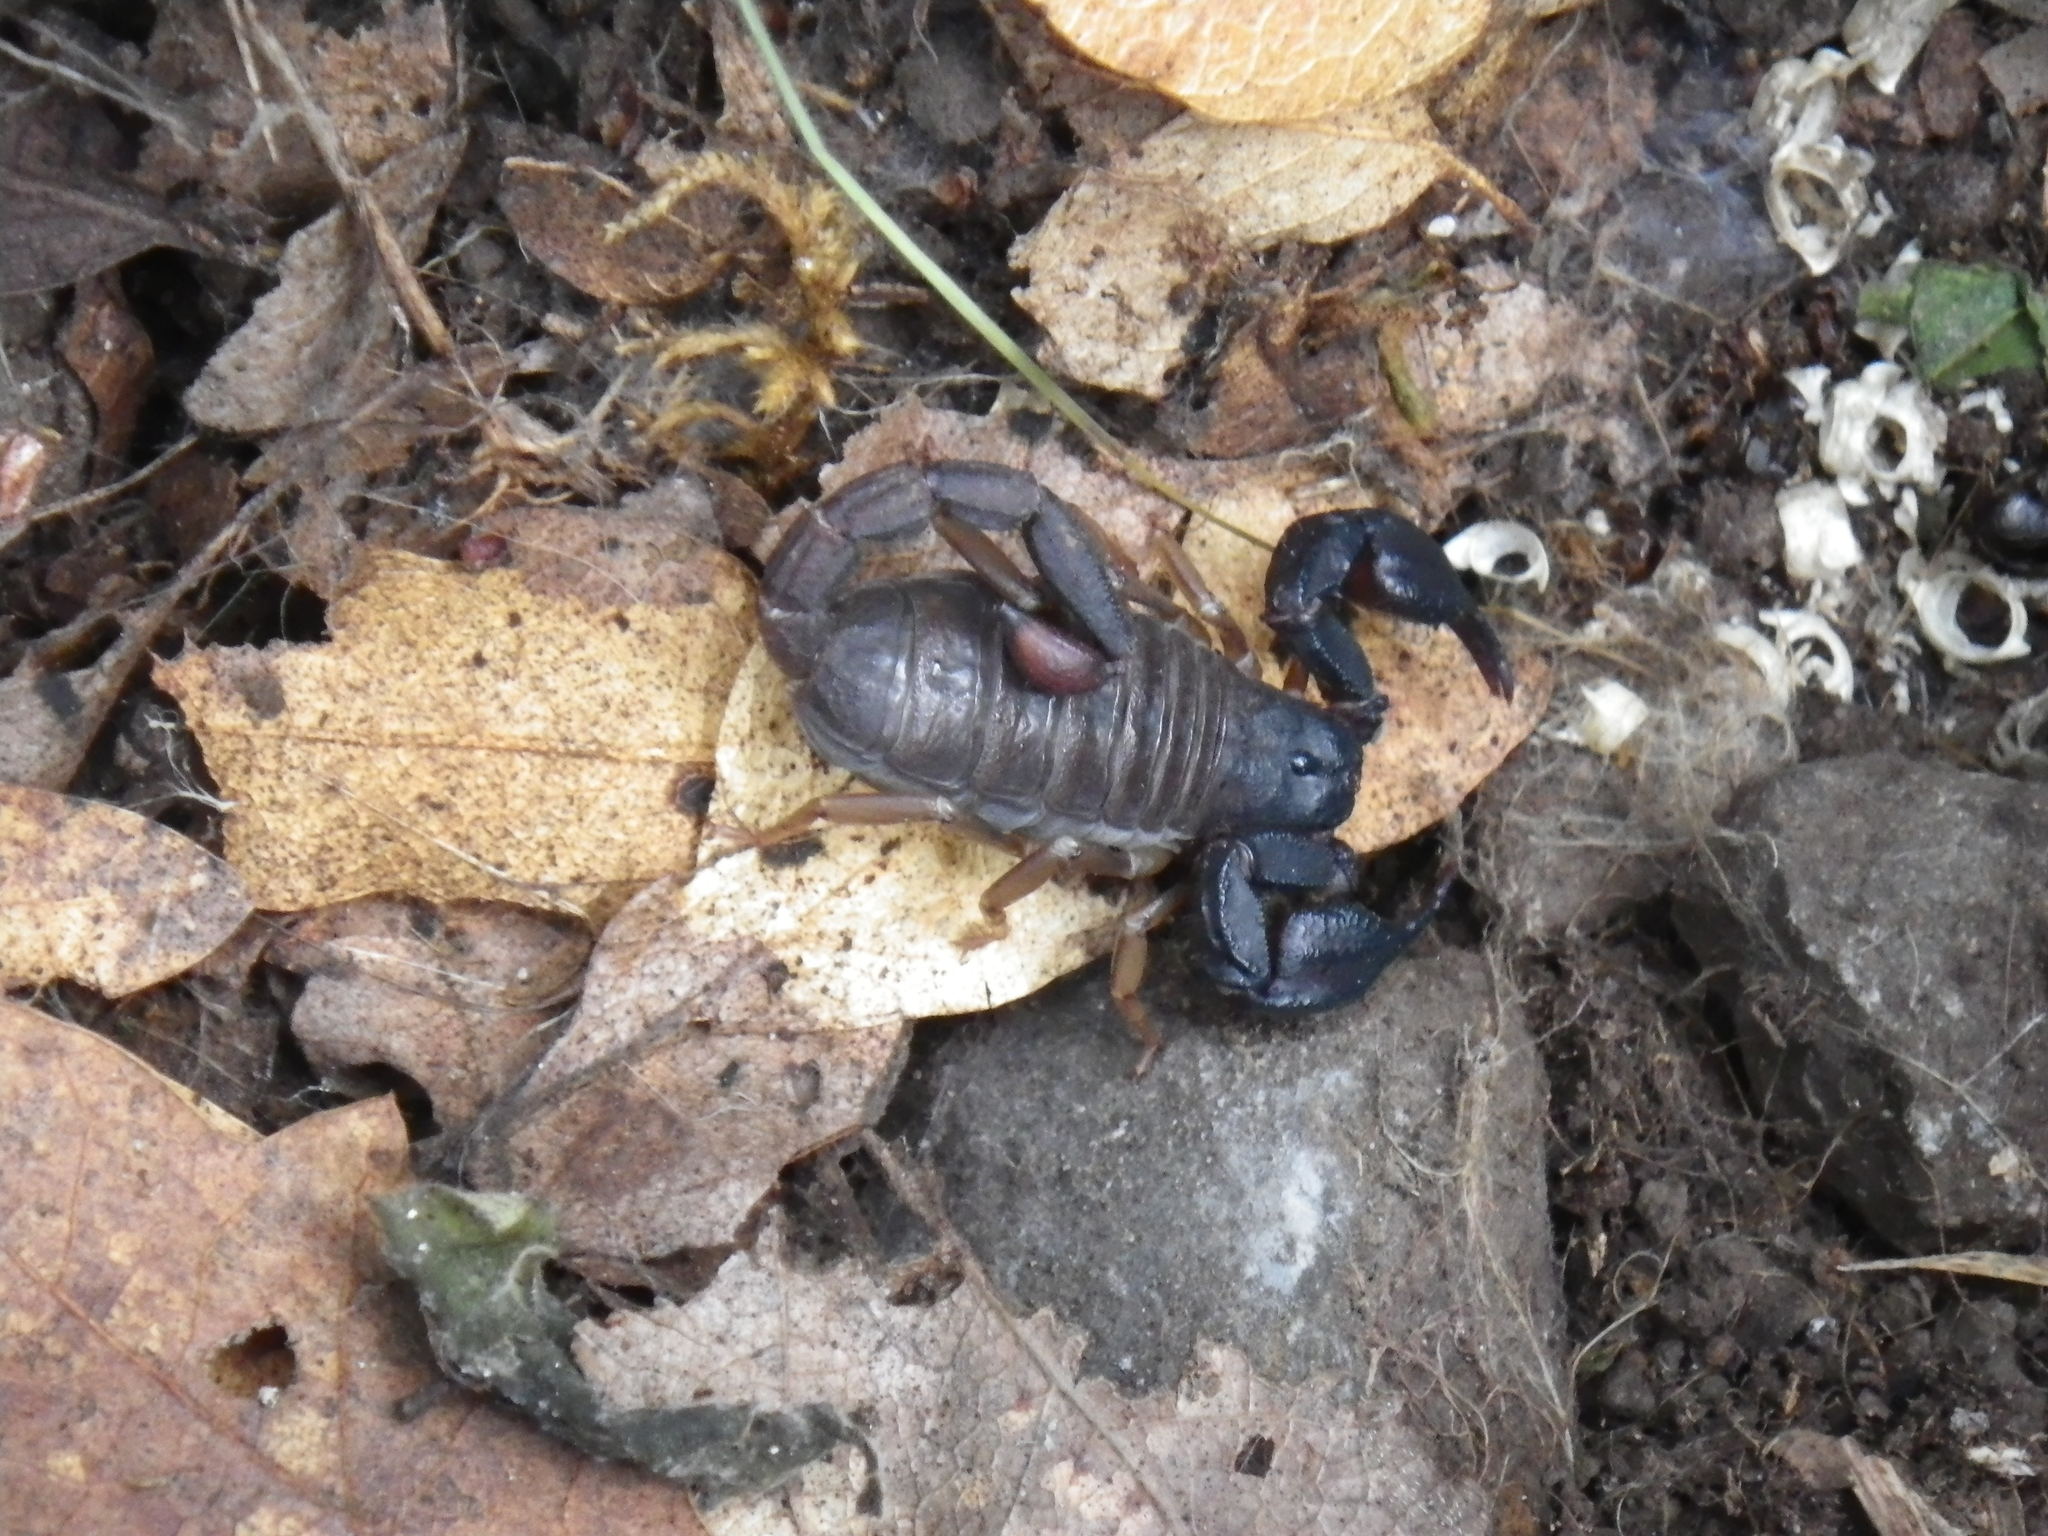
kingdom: Animalia
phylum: Arthropoda
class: Arachnida
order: Scorpiones
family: Chactidae
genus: Uroctonus
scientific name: Uroctonus mordax
